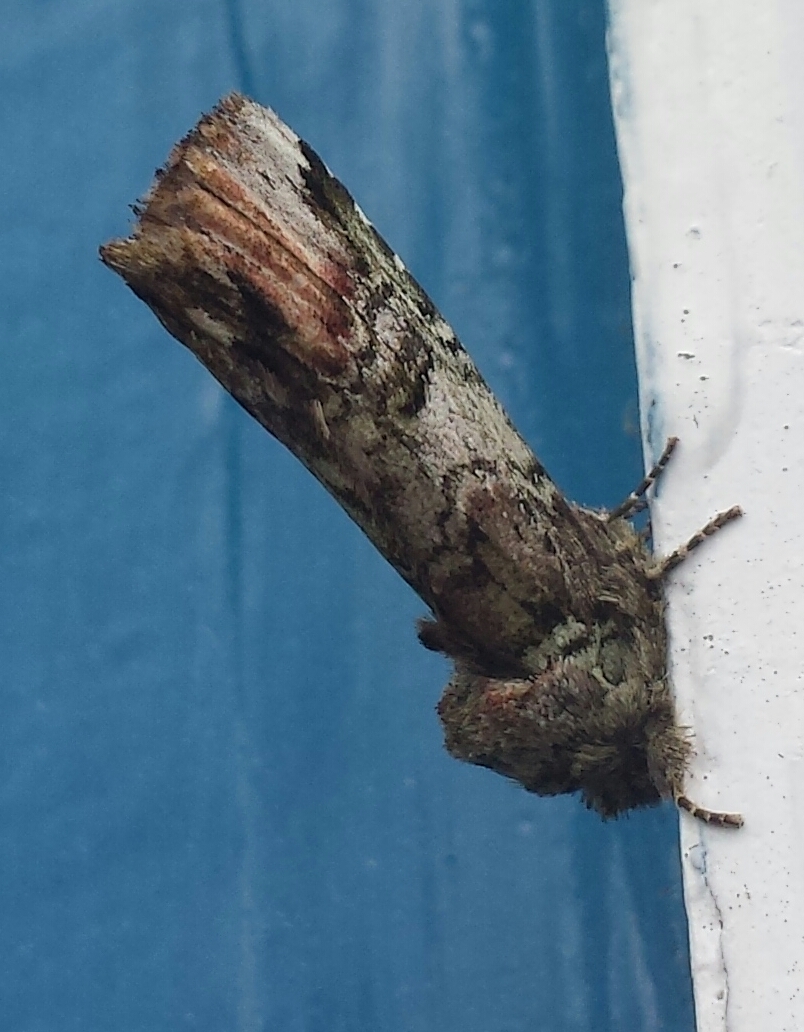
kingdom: Animalia
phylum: Arthropoda
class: Insecta
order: Lepidoptera
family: Notodontidae
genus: Schizura
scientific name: Schizura
